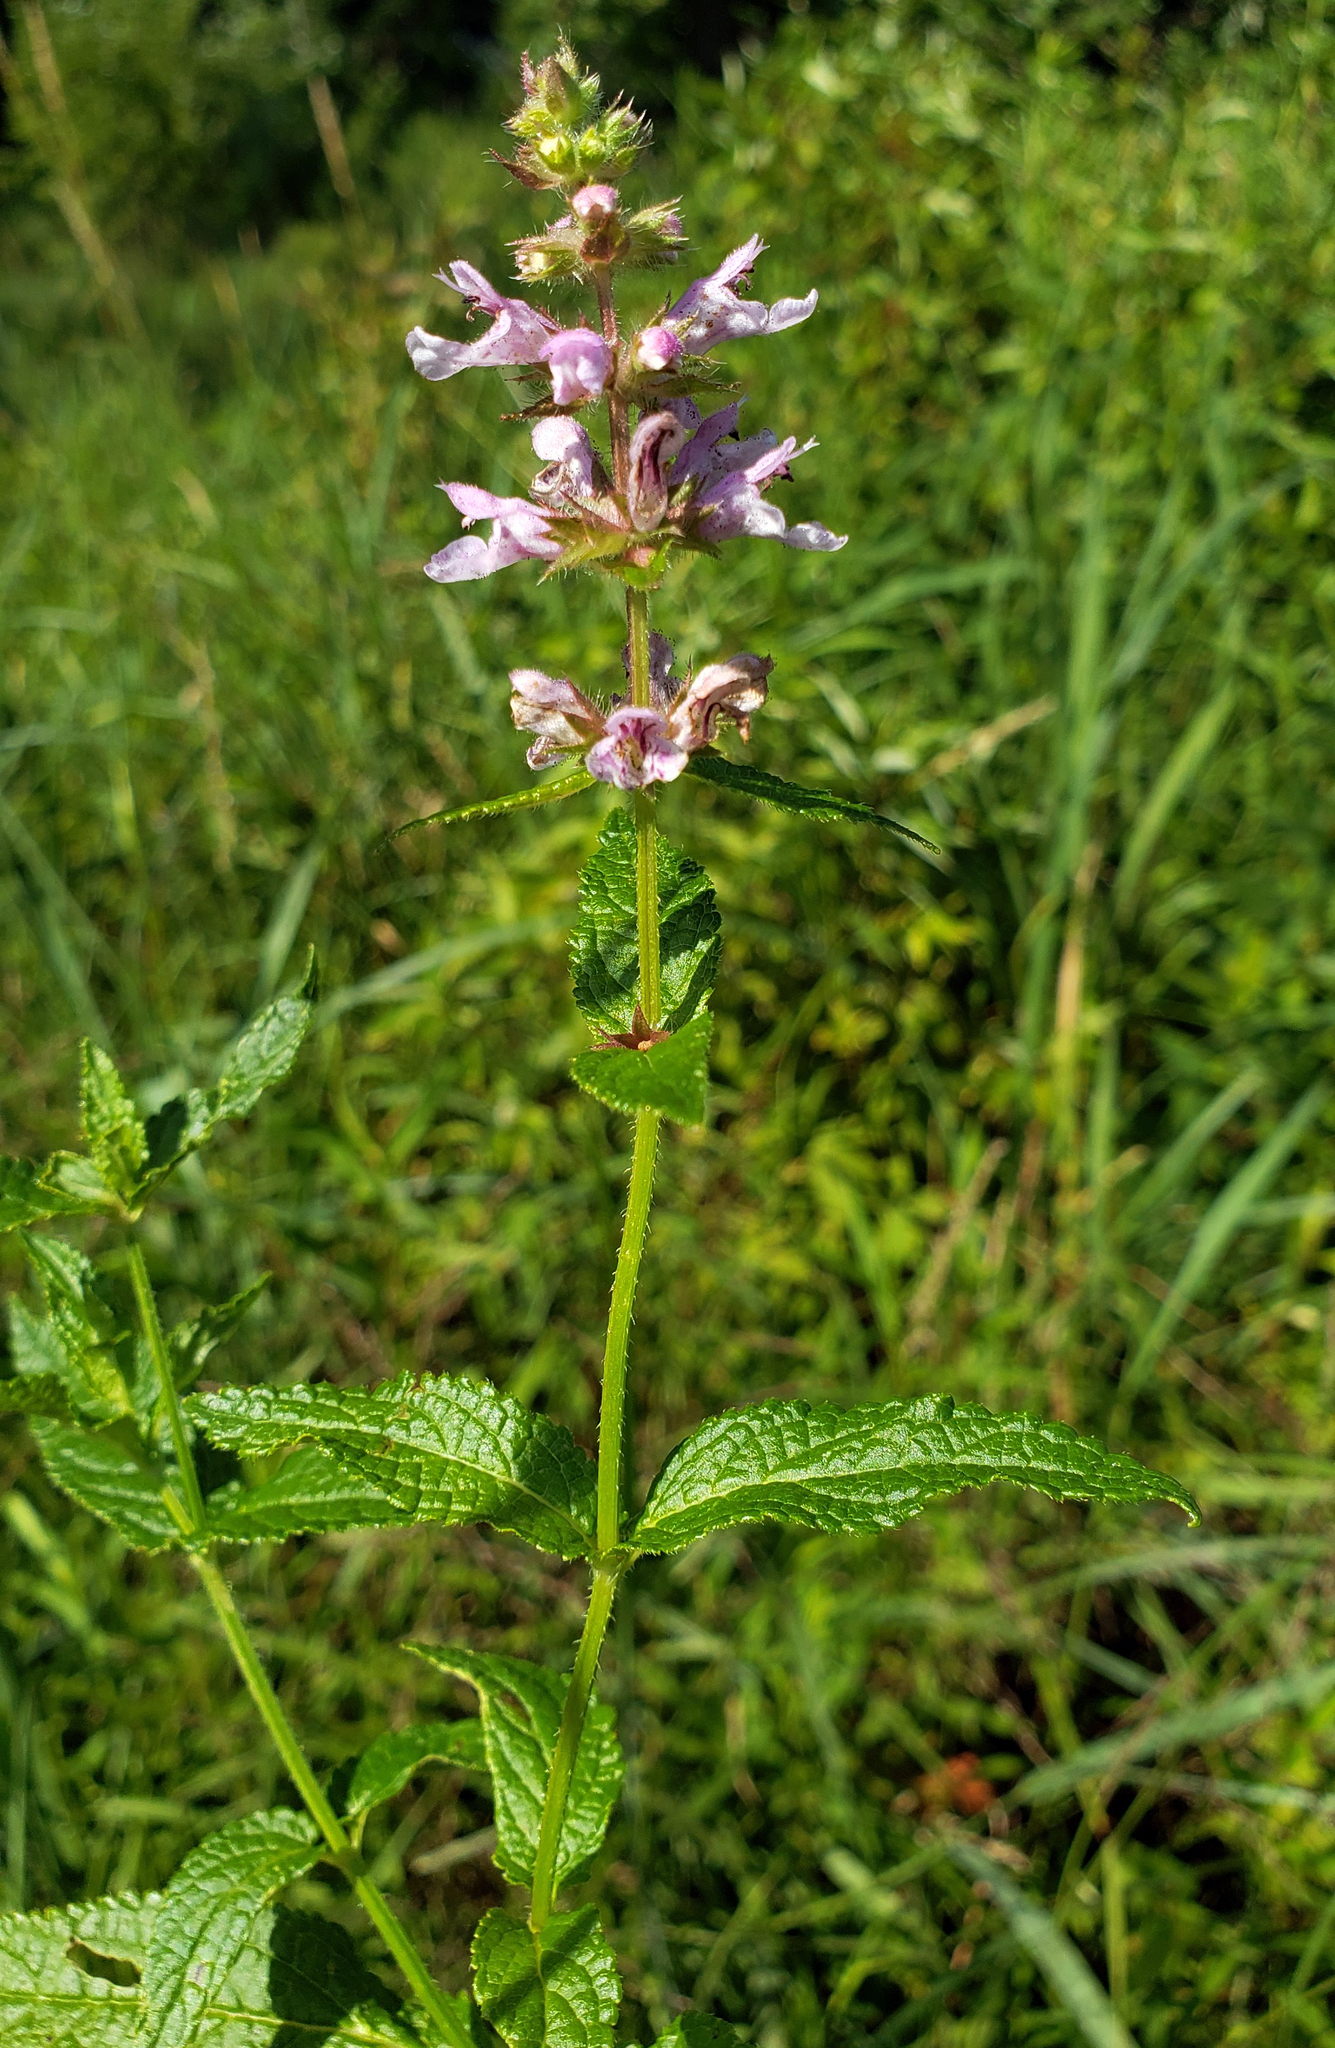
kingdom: Plantae
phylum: Tracheophyta
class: Magnoliopsida
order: Lamiales
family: Lamiaceae
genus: Stachys
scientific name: Stachys hispida
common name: Hispid hedge-nettle
